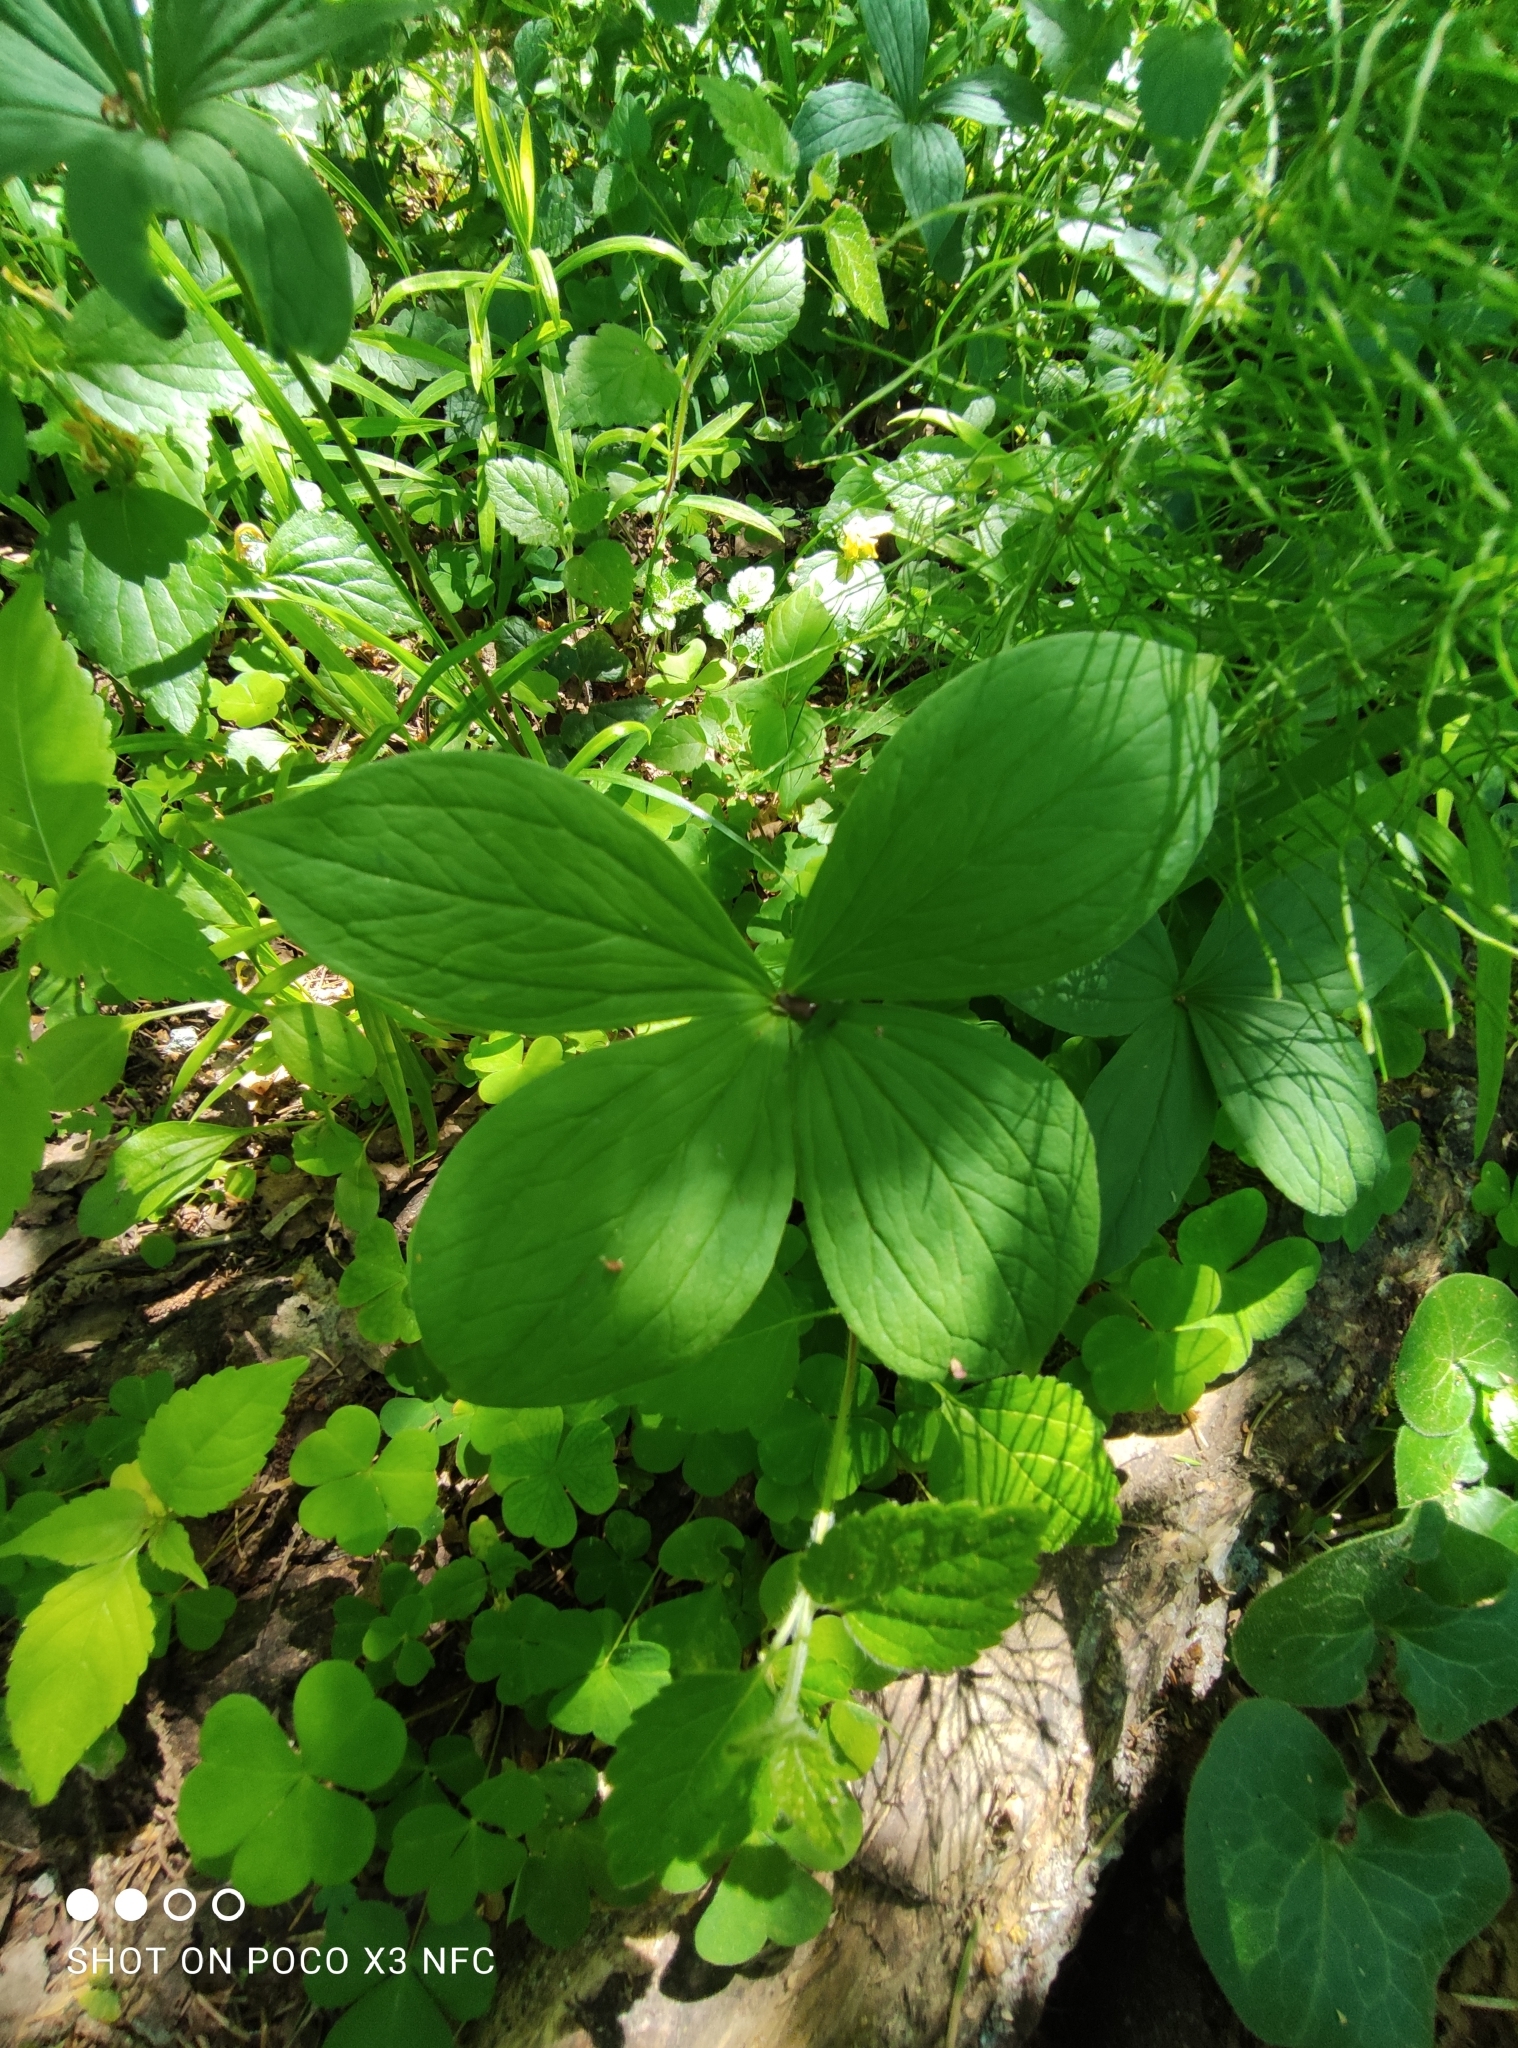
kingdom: Plantae
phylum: Tracheophyta
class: Liliopsida
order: Liliales
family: Melanthiaceae
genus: Paris
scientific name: Paris quadrifolia
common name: Herb-paris
